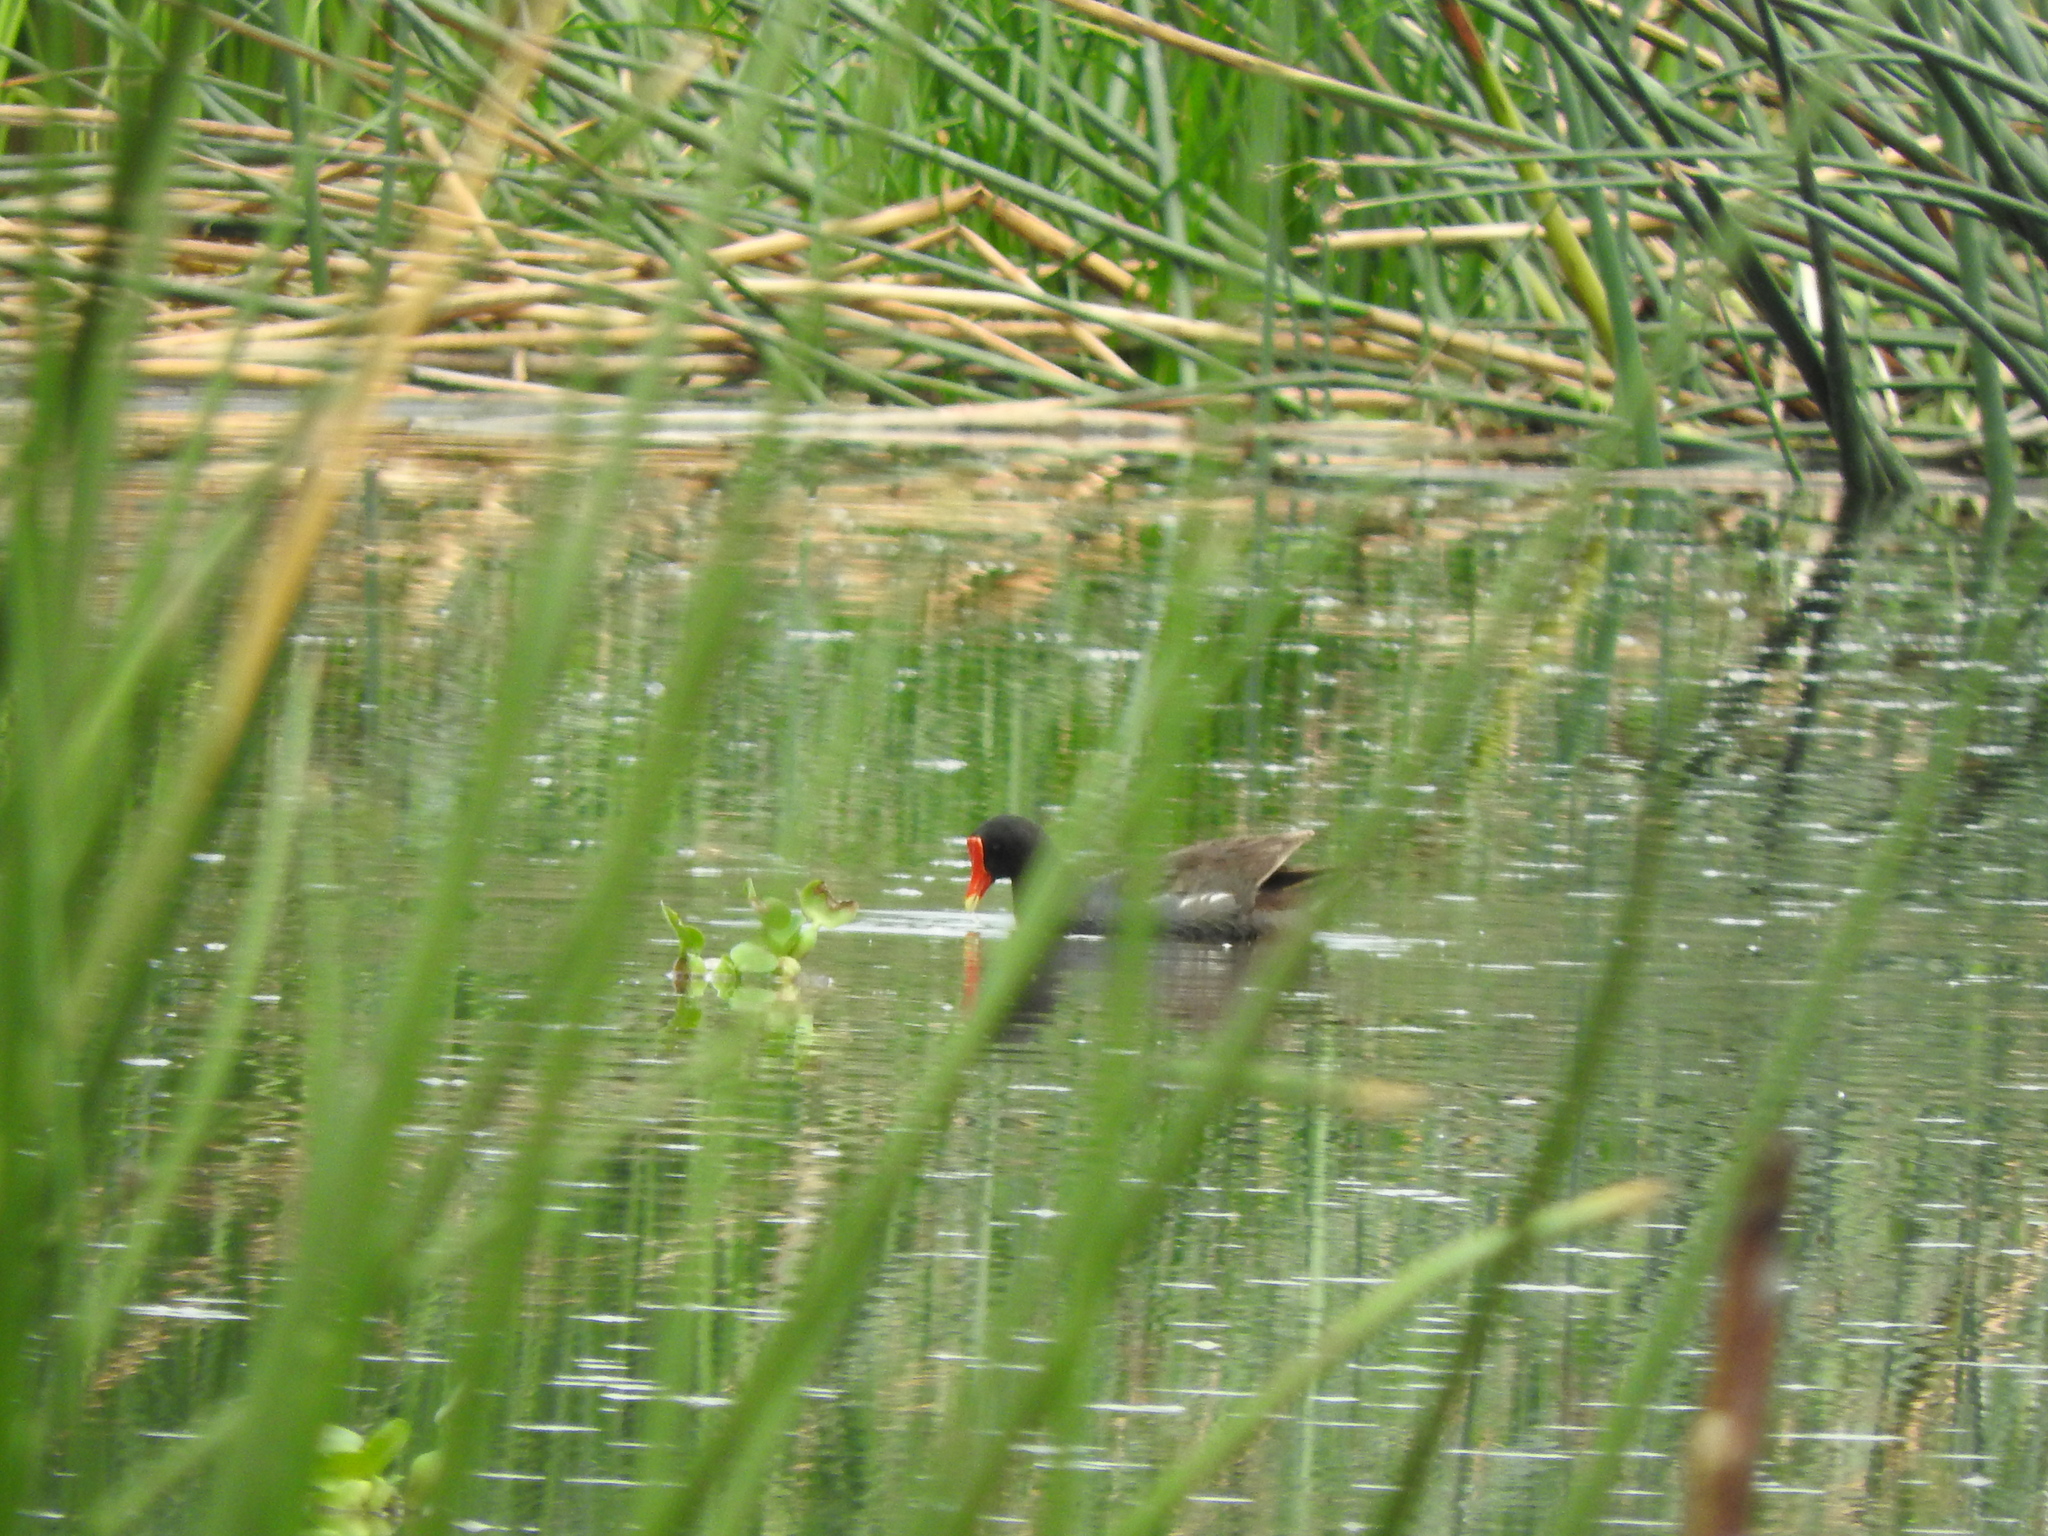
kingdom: Animalia
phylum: Chordata
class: Aves
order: Gruiformes
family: Rallidae
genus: Gallinula
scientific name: Gallinula chloropus
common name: Common moorhen
